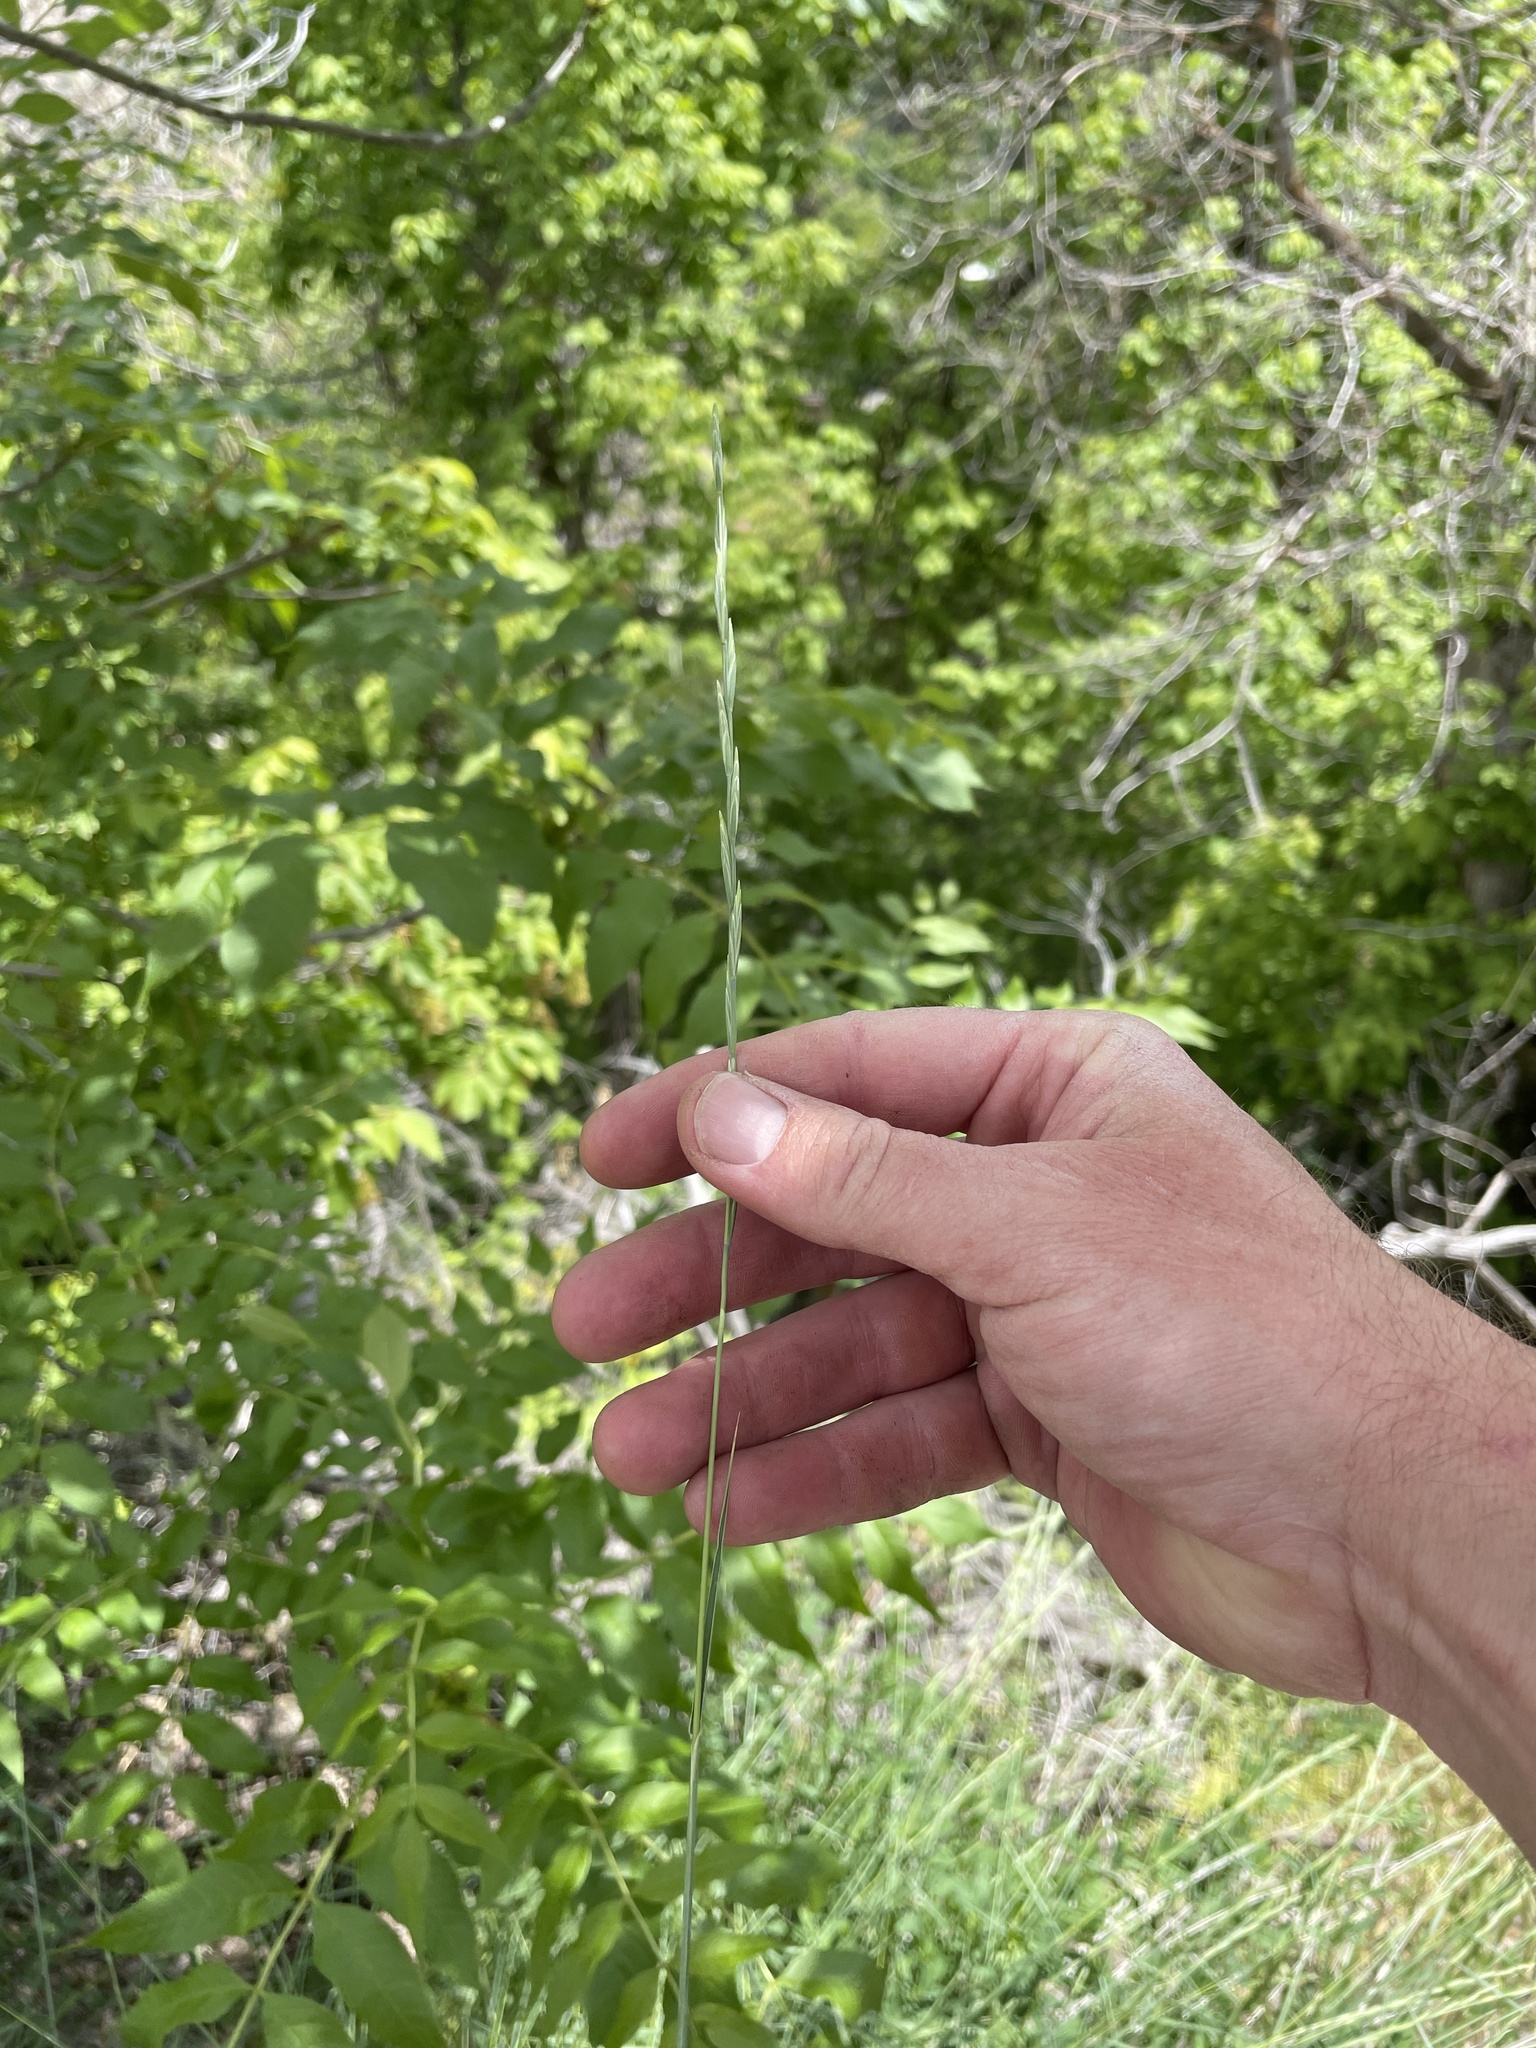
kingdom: Plantae
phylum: Tracheophyta
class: Liliopsida
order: Poales
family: Poaceae
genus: Pseudoroegneria
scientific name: Pseudoroegneria spicata
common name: Bluebunch wheatgrass
